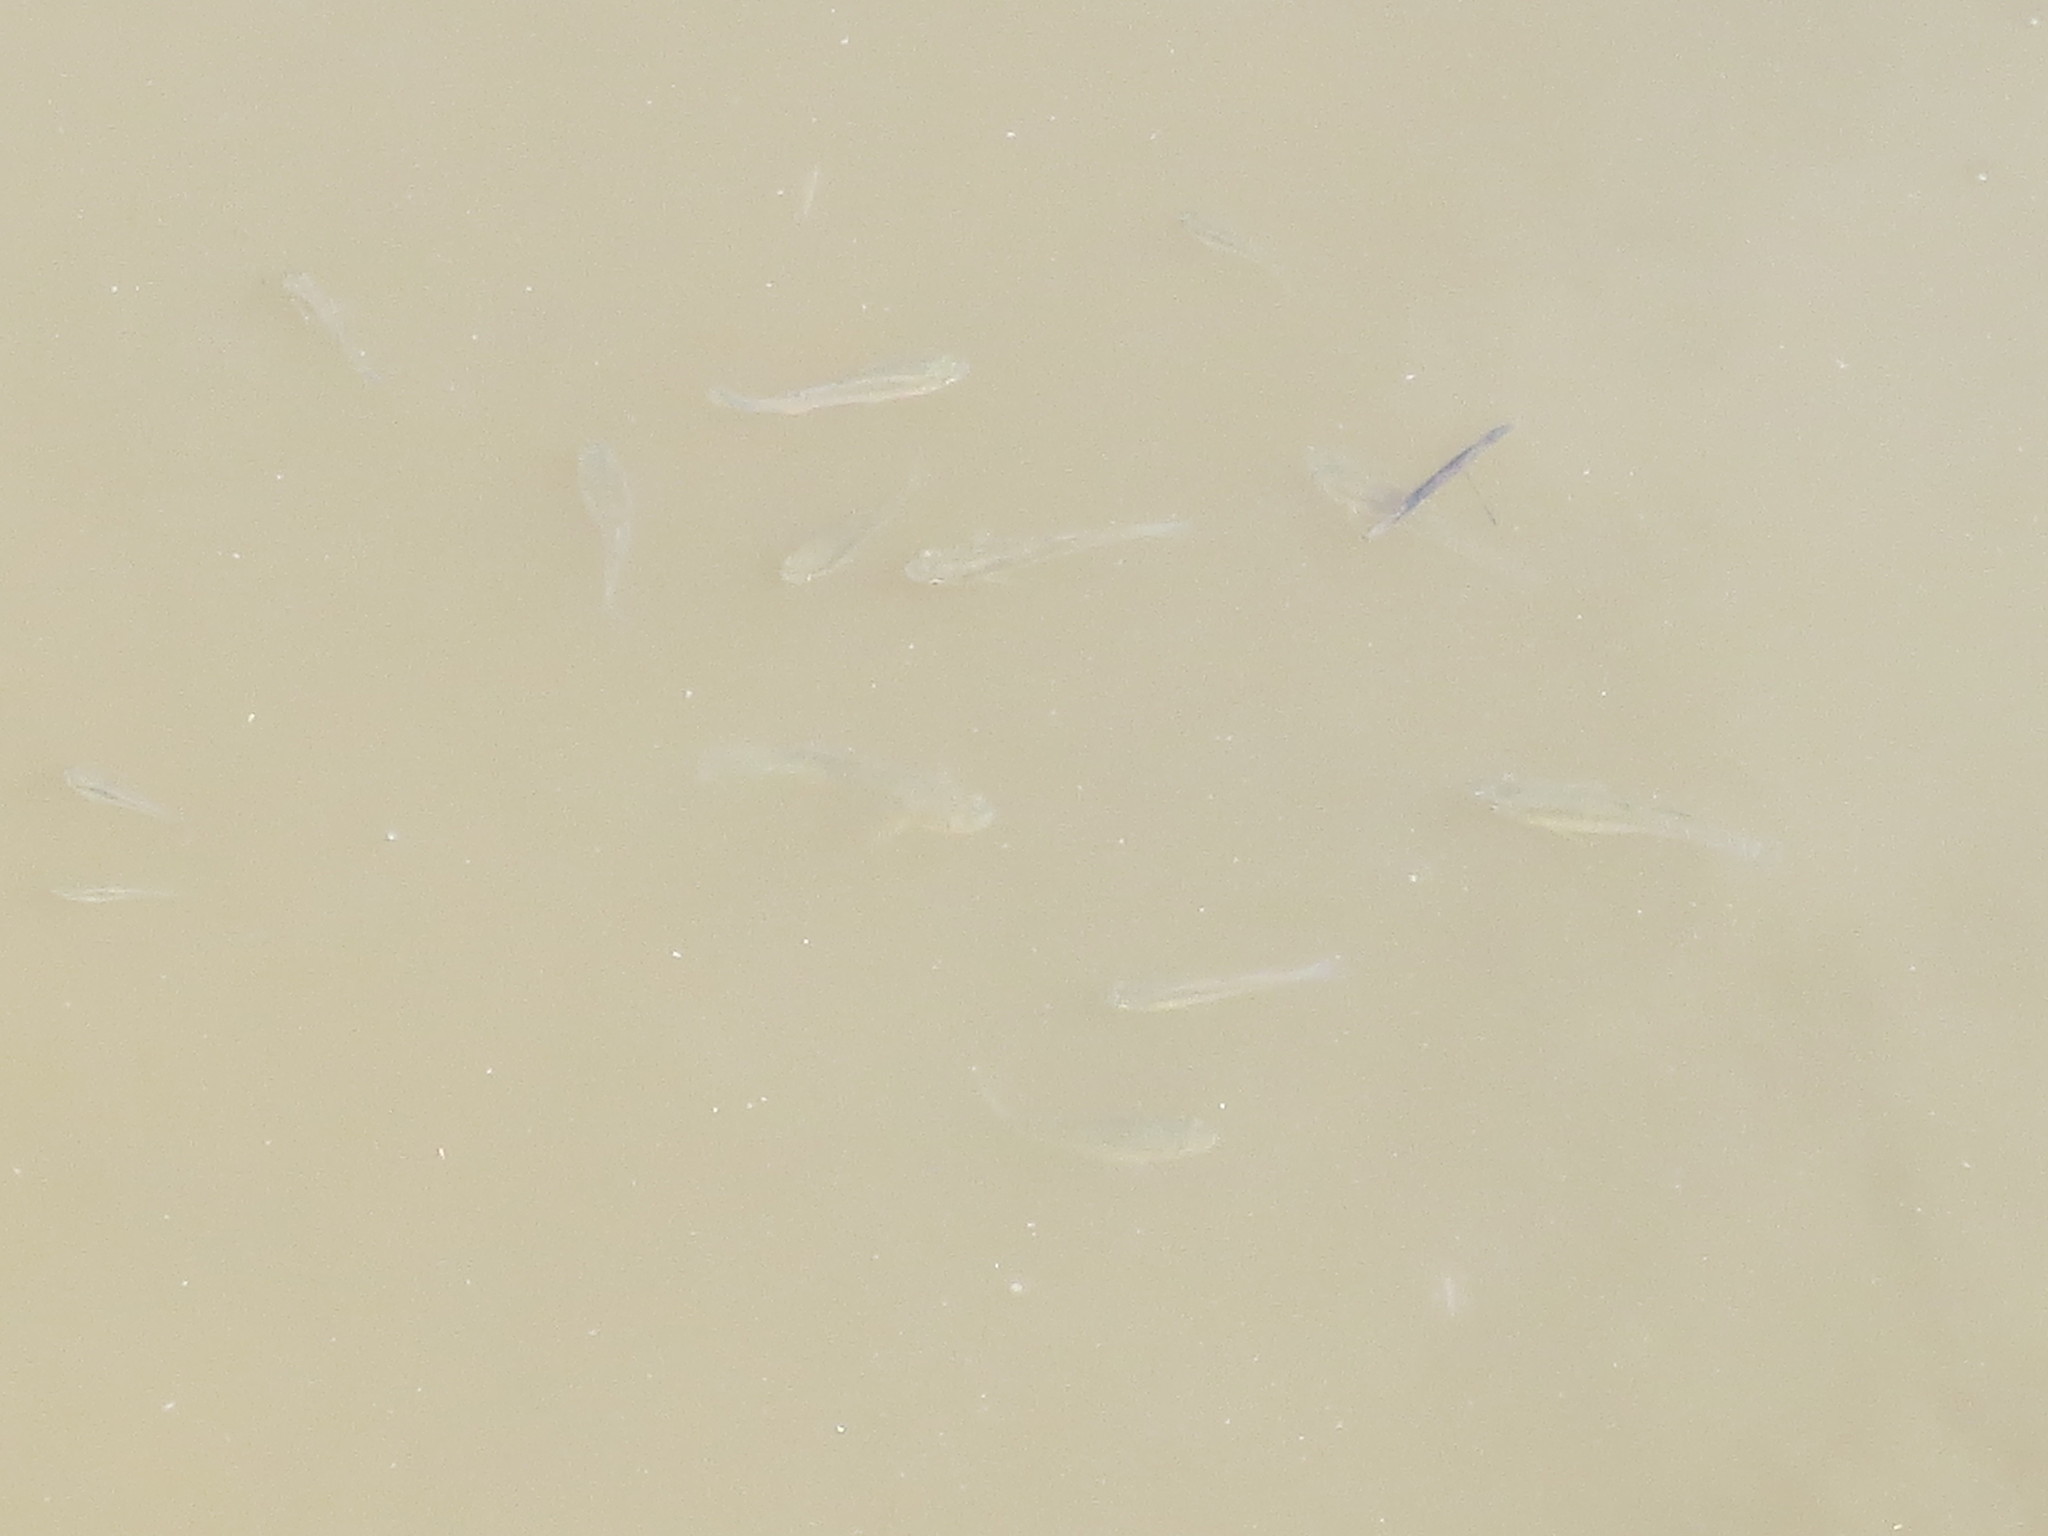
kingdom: Animalia
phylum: Chordata
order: Cyprinodontiformes
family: Poeciliidae
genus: Gambusia
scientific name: Gambusia holbrooki
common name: Eastern mosquitofish
